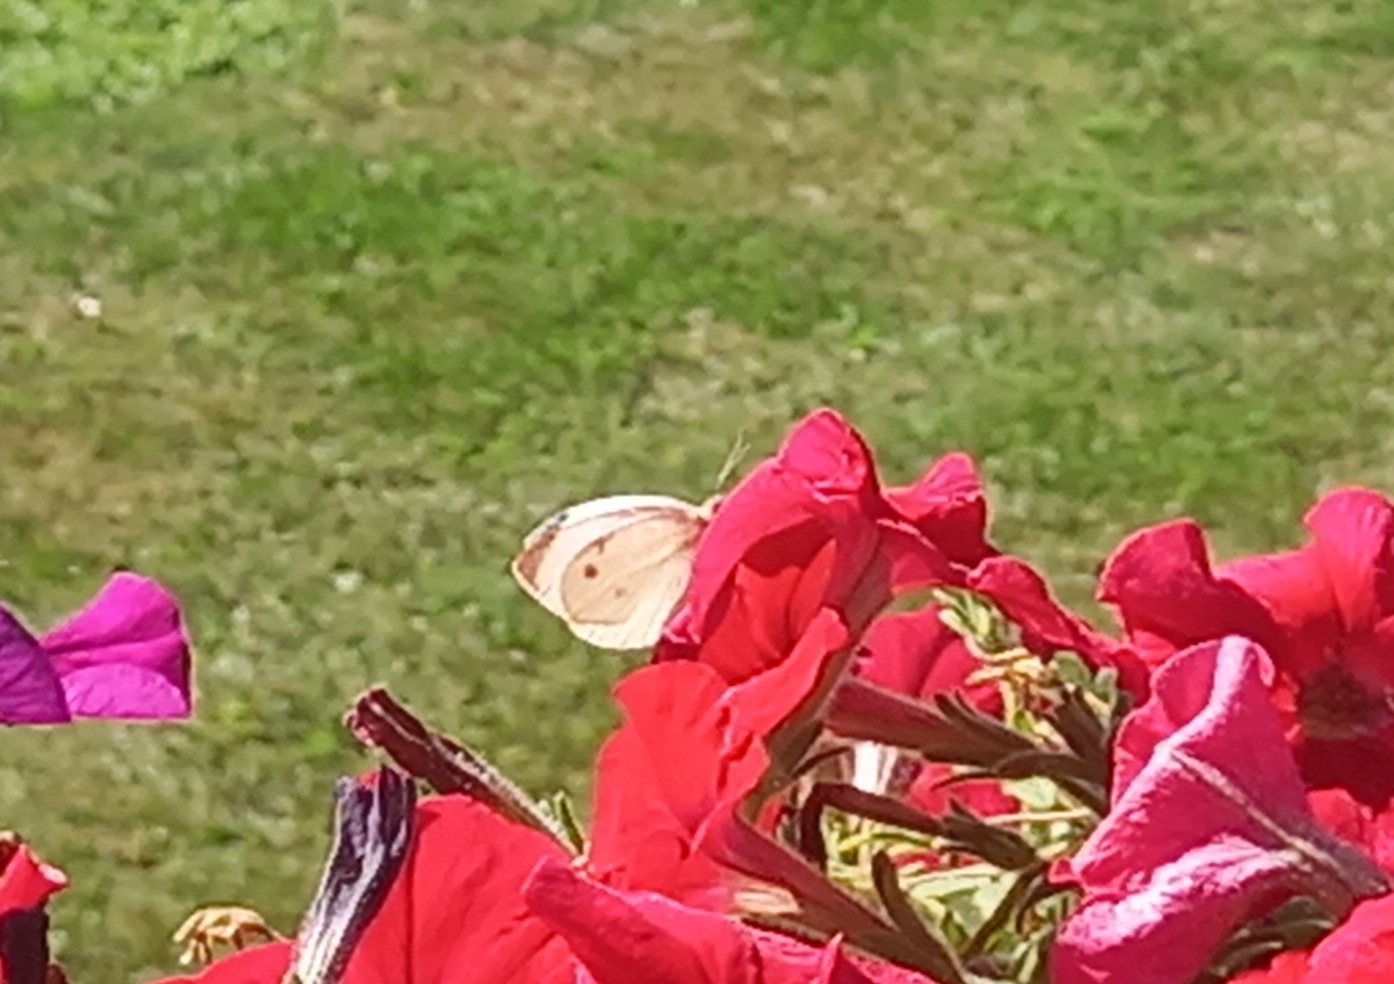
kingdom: Animalia
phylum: Arthropoda
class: Insecta
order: Lepidoptera
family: Pieridae
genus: Pieris
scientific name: Pieris rapae
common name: Small white
